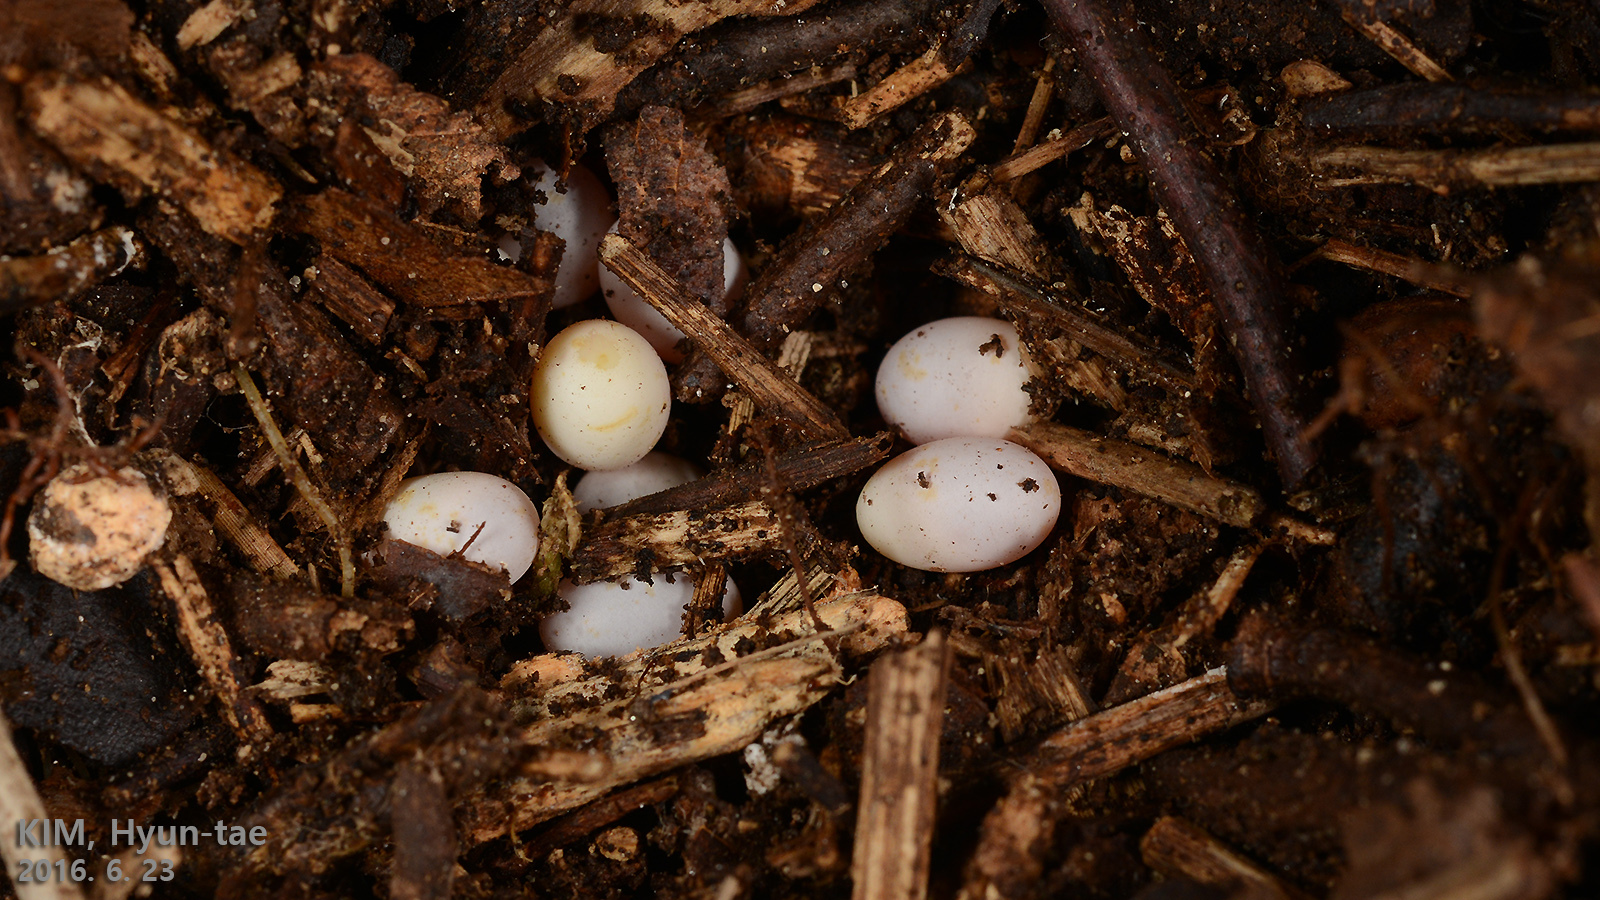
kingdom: Animalia
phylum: Chordata
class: Squamata
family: Scincidae
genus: Scincella
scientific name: Scincella vandenburghi
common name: Tsushima smooth skink
